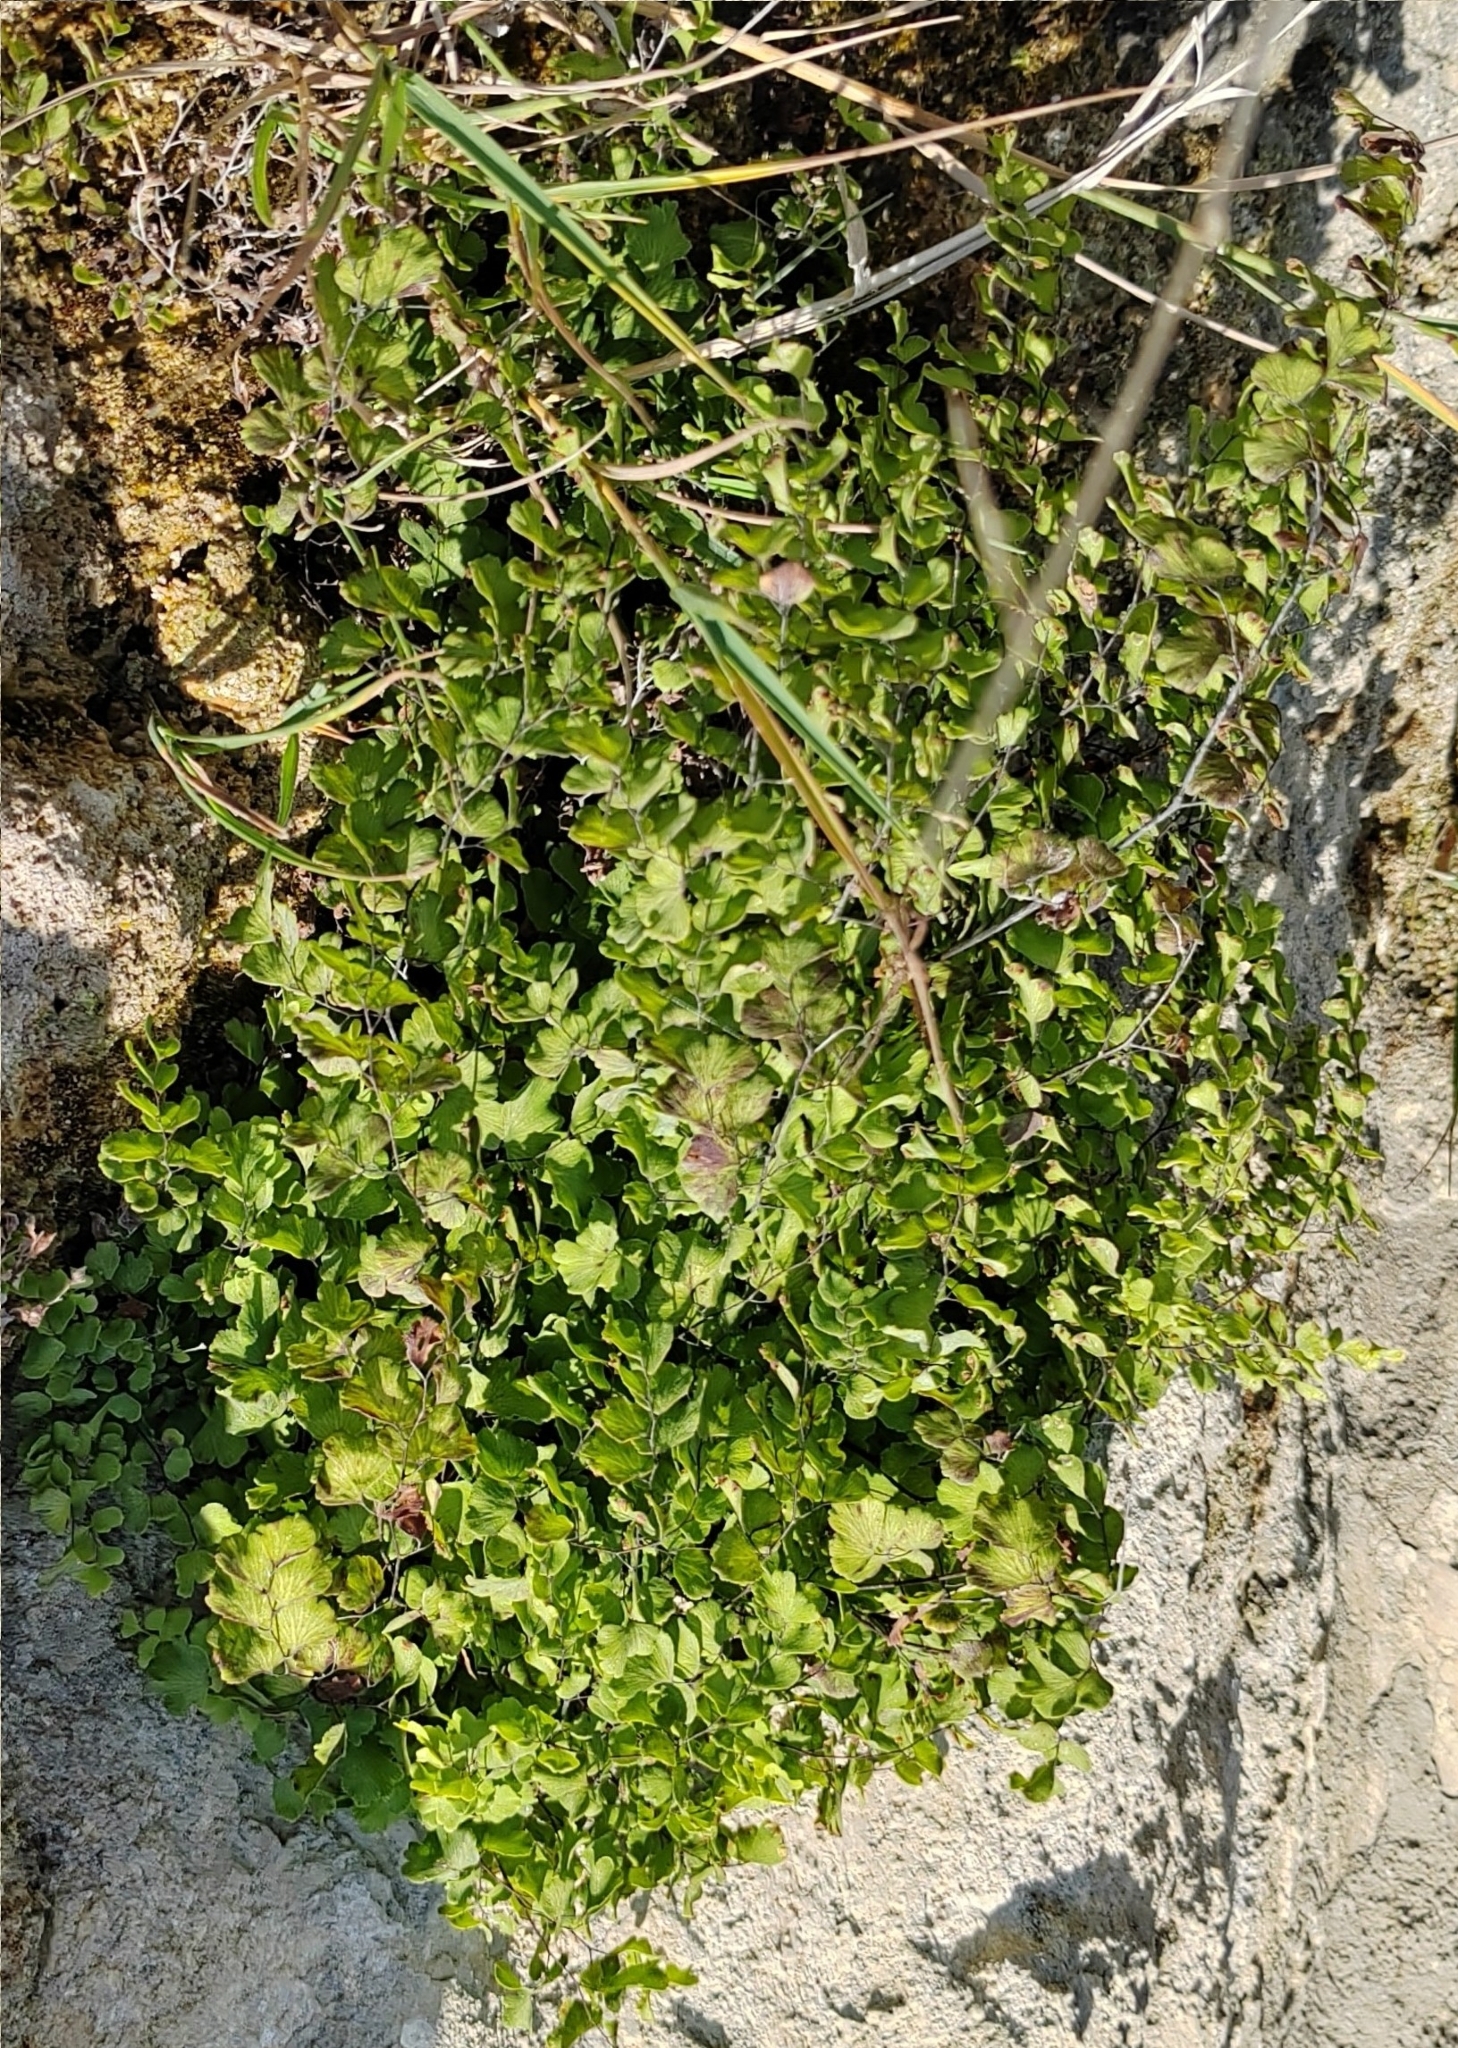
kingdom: Plantae
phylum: Tracheophyta
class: Polypodiopsida
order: Polypodiales
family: Pteridaceae
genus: Adiantum
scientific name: Adiantum capillus-veneris
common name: Maidenhair fern
